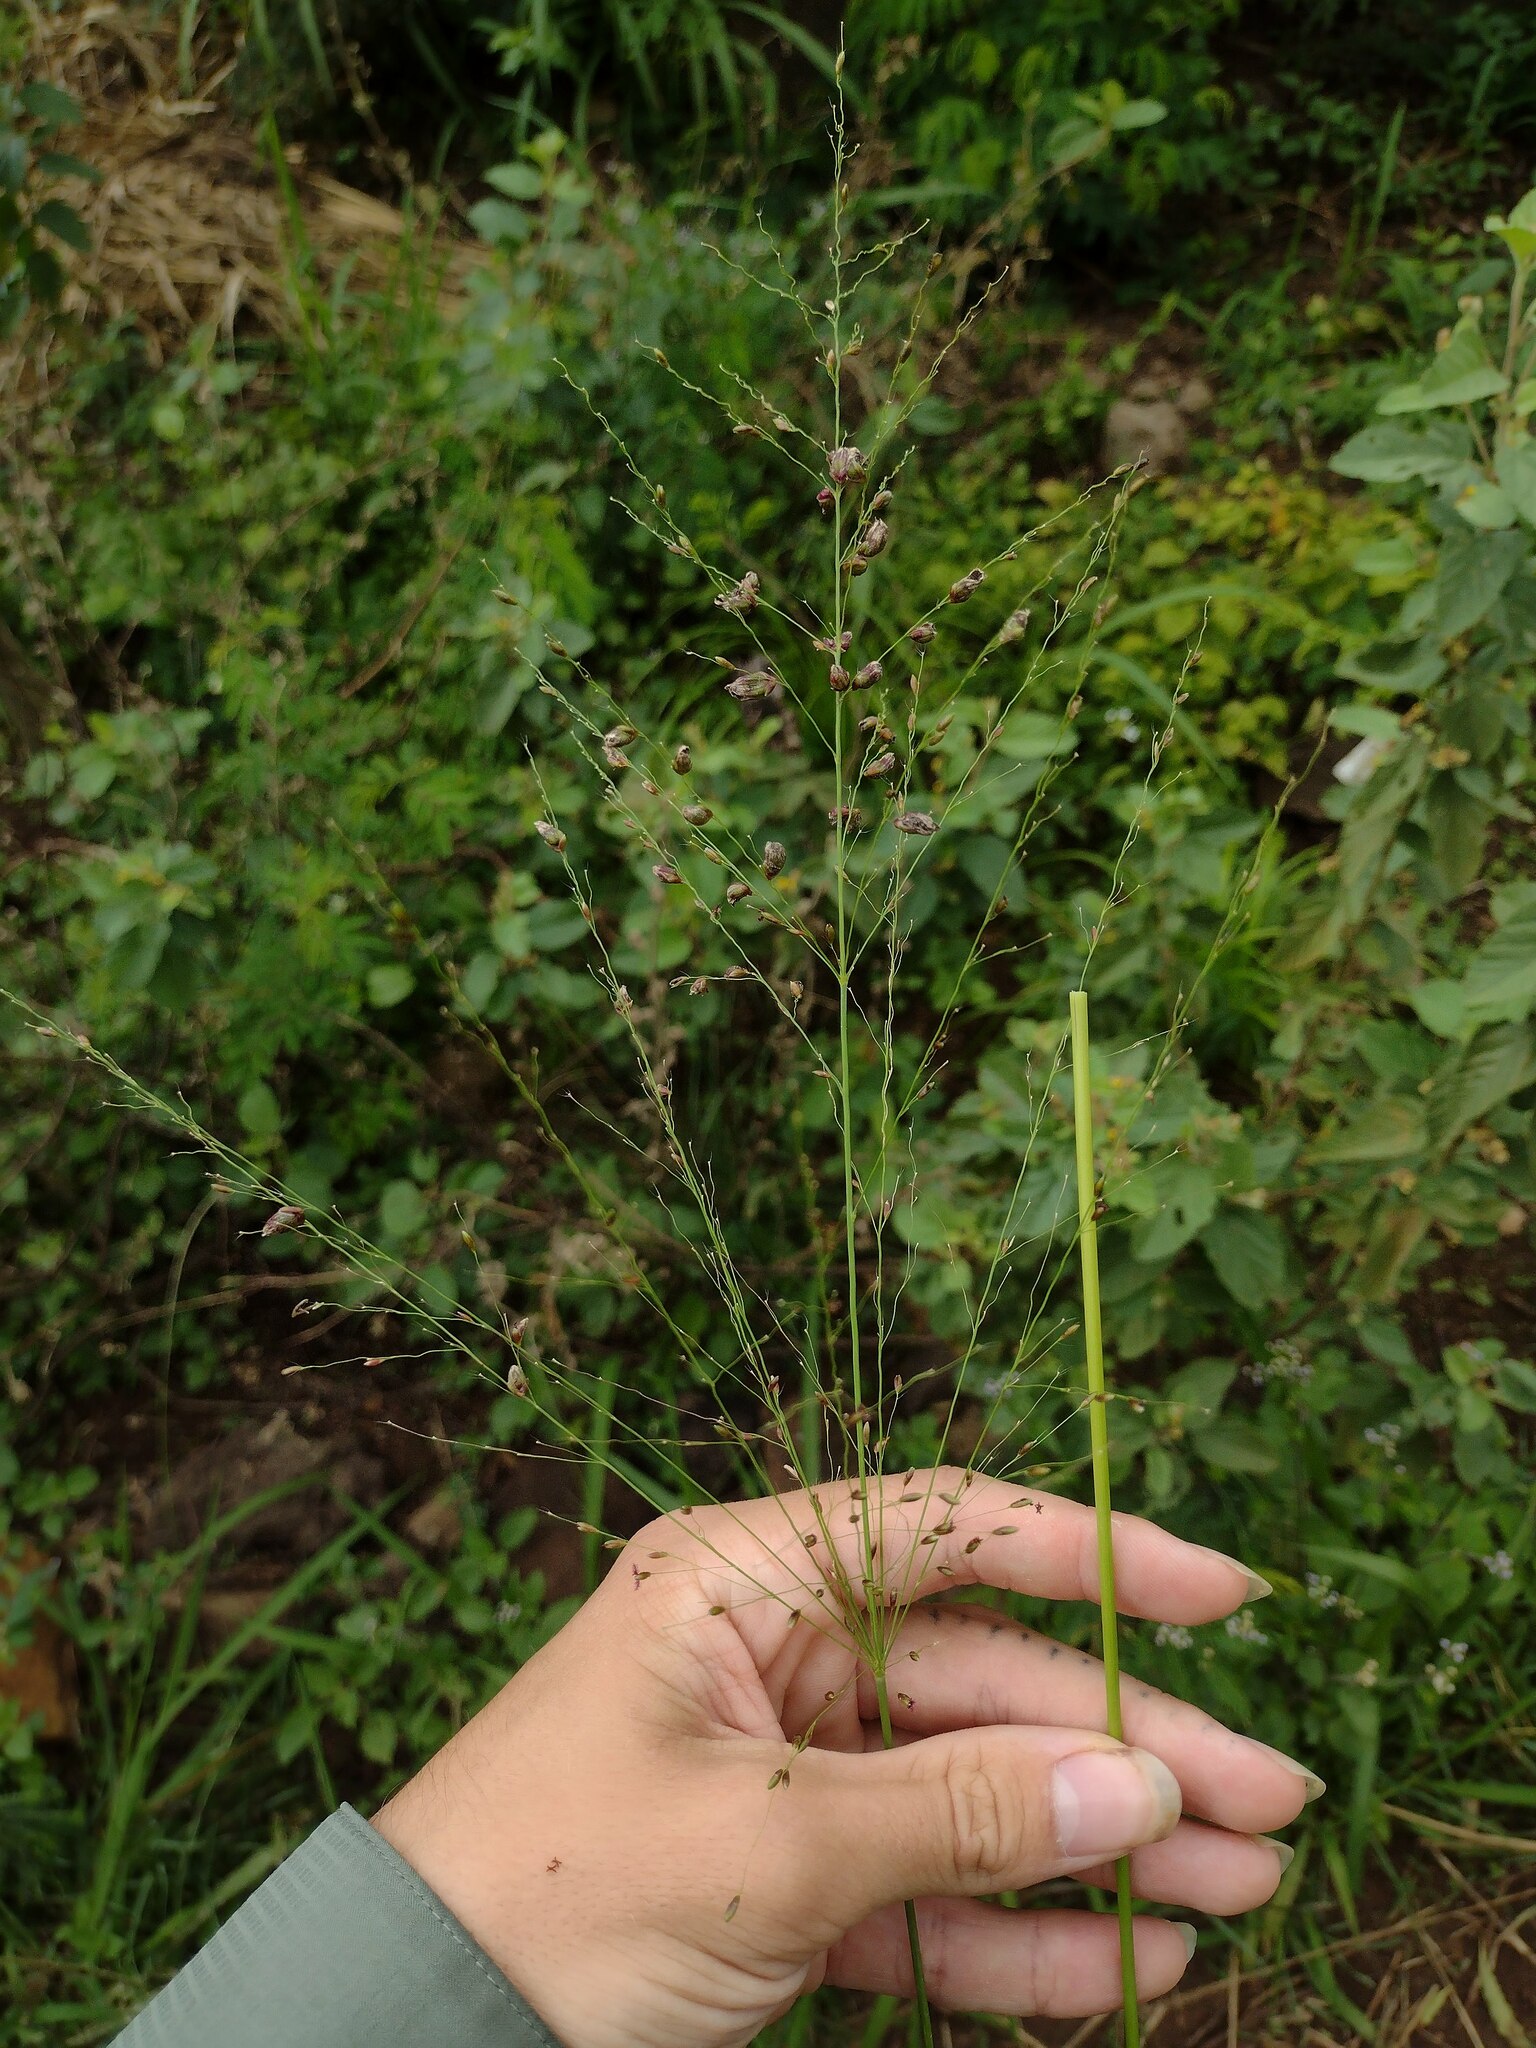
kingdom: Fungi
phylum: Basidiomycota
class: Exobasidiomycetes
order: Tilletiales
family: Tilletiaceae
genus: Conidiosporomyces
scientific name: Conidiosporomyces ayresii
